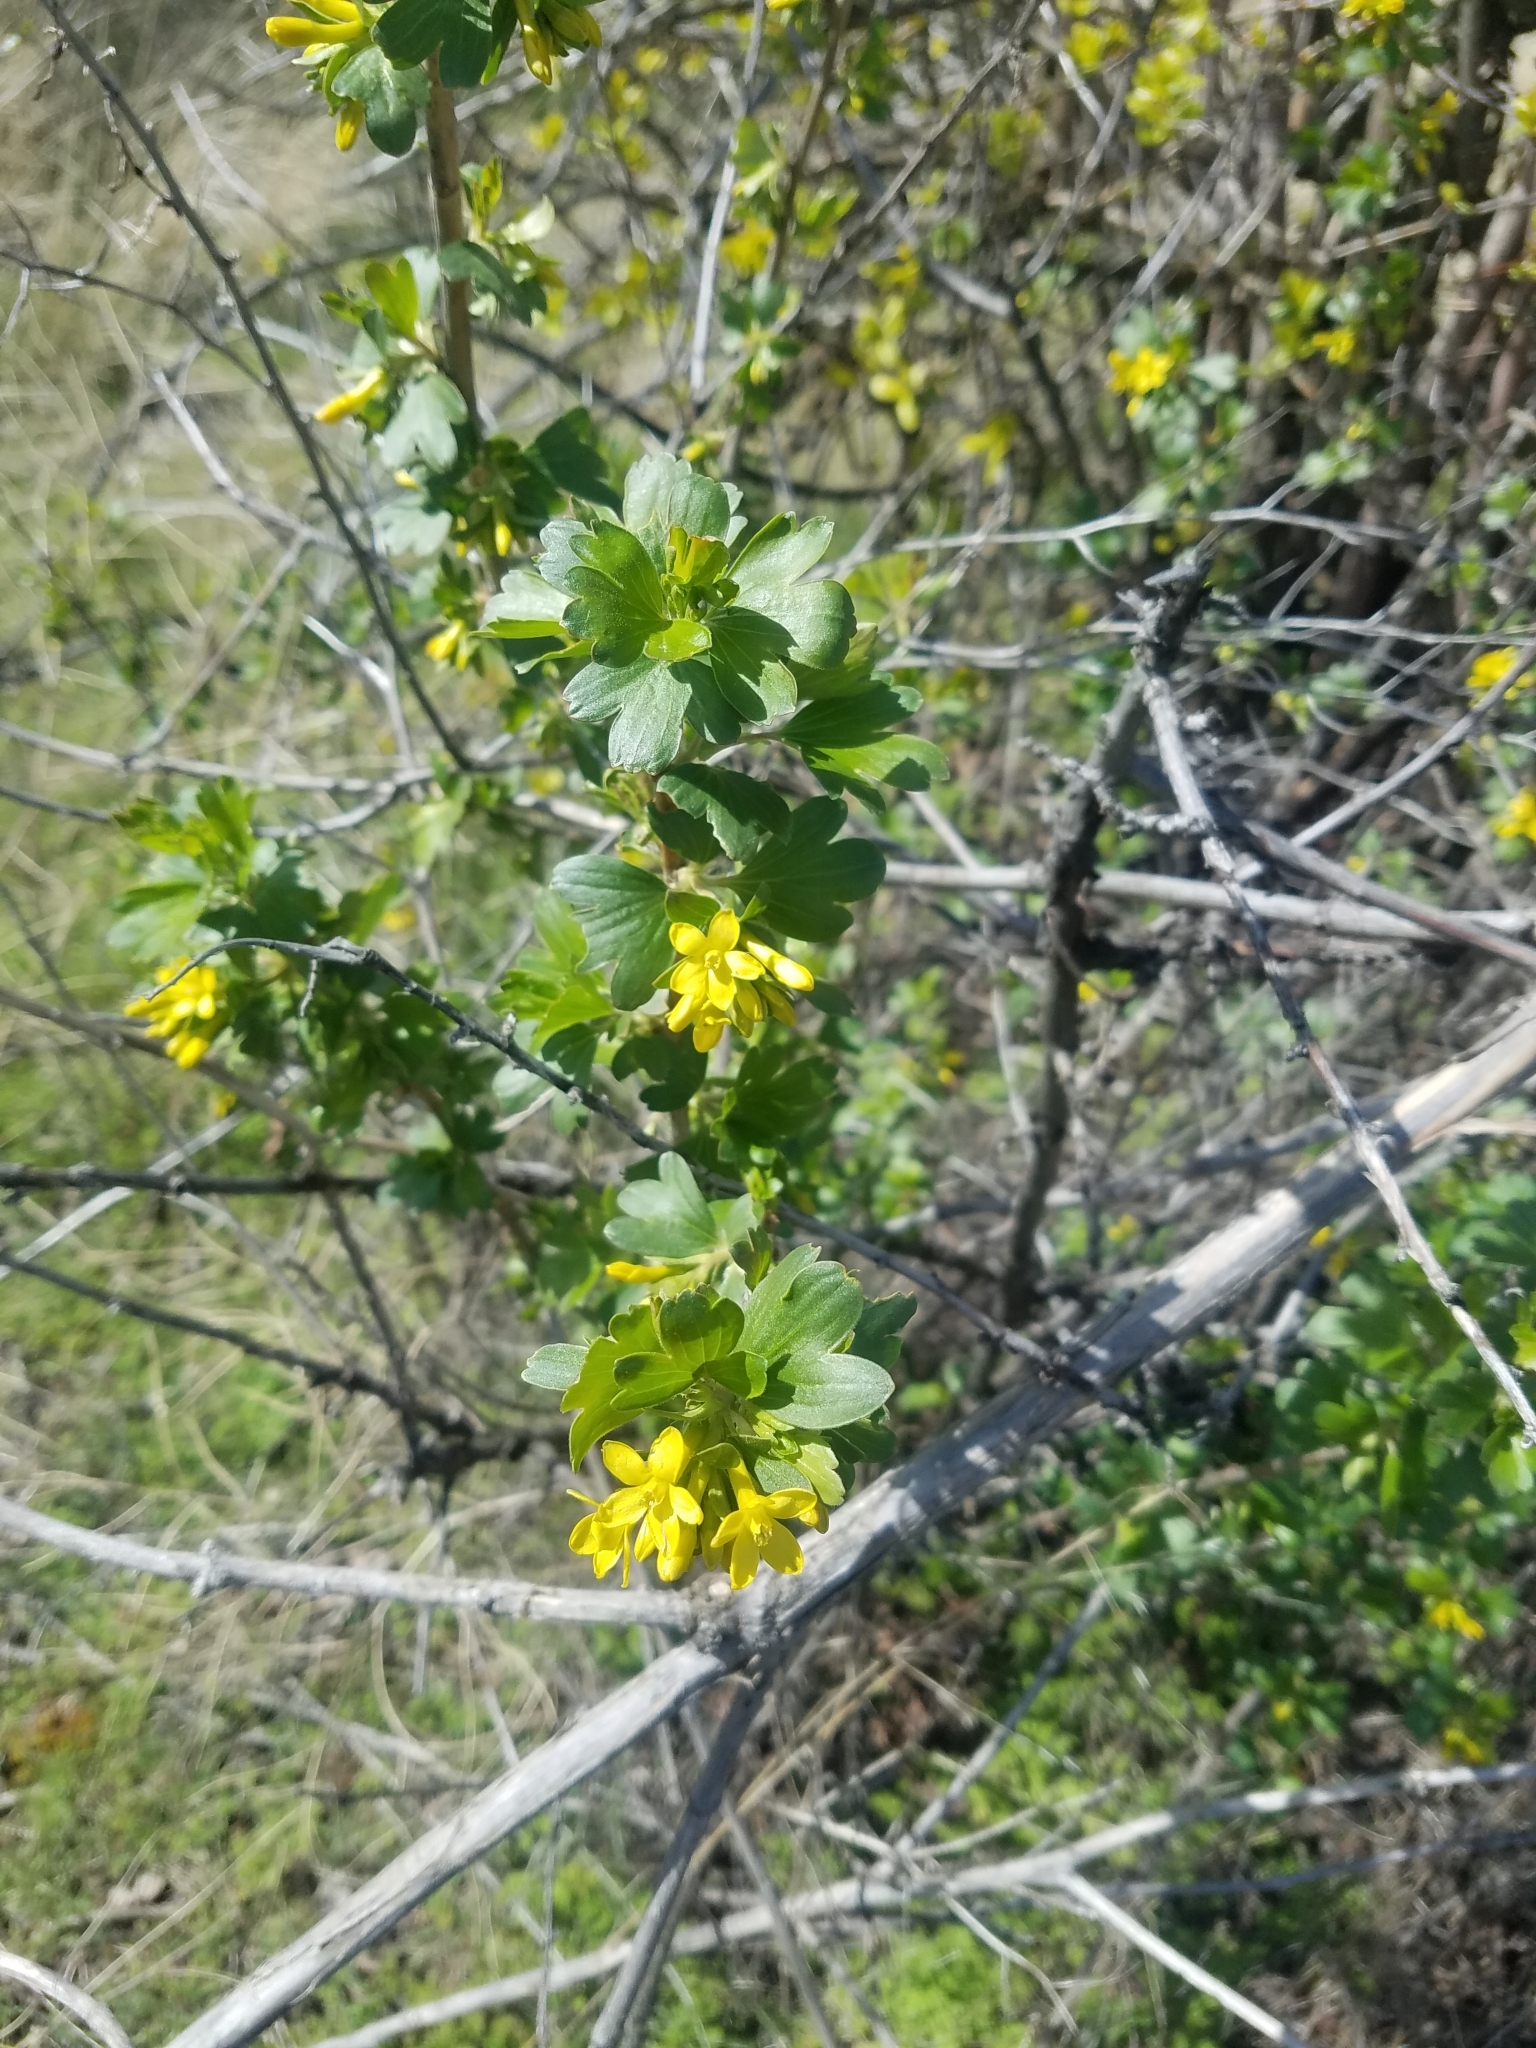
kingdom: Plantae
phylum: Tracheophyta
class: Magnoliopsida
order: Saxifragales
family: Grossulariaceae
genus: Ribes
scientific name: Ribes aureum
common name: Golden currant
